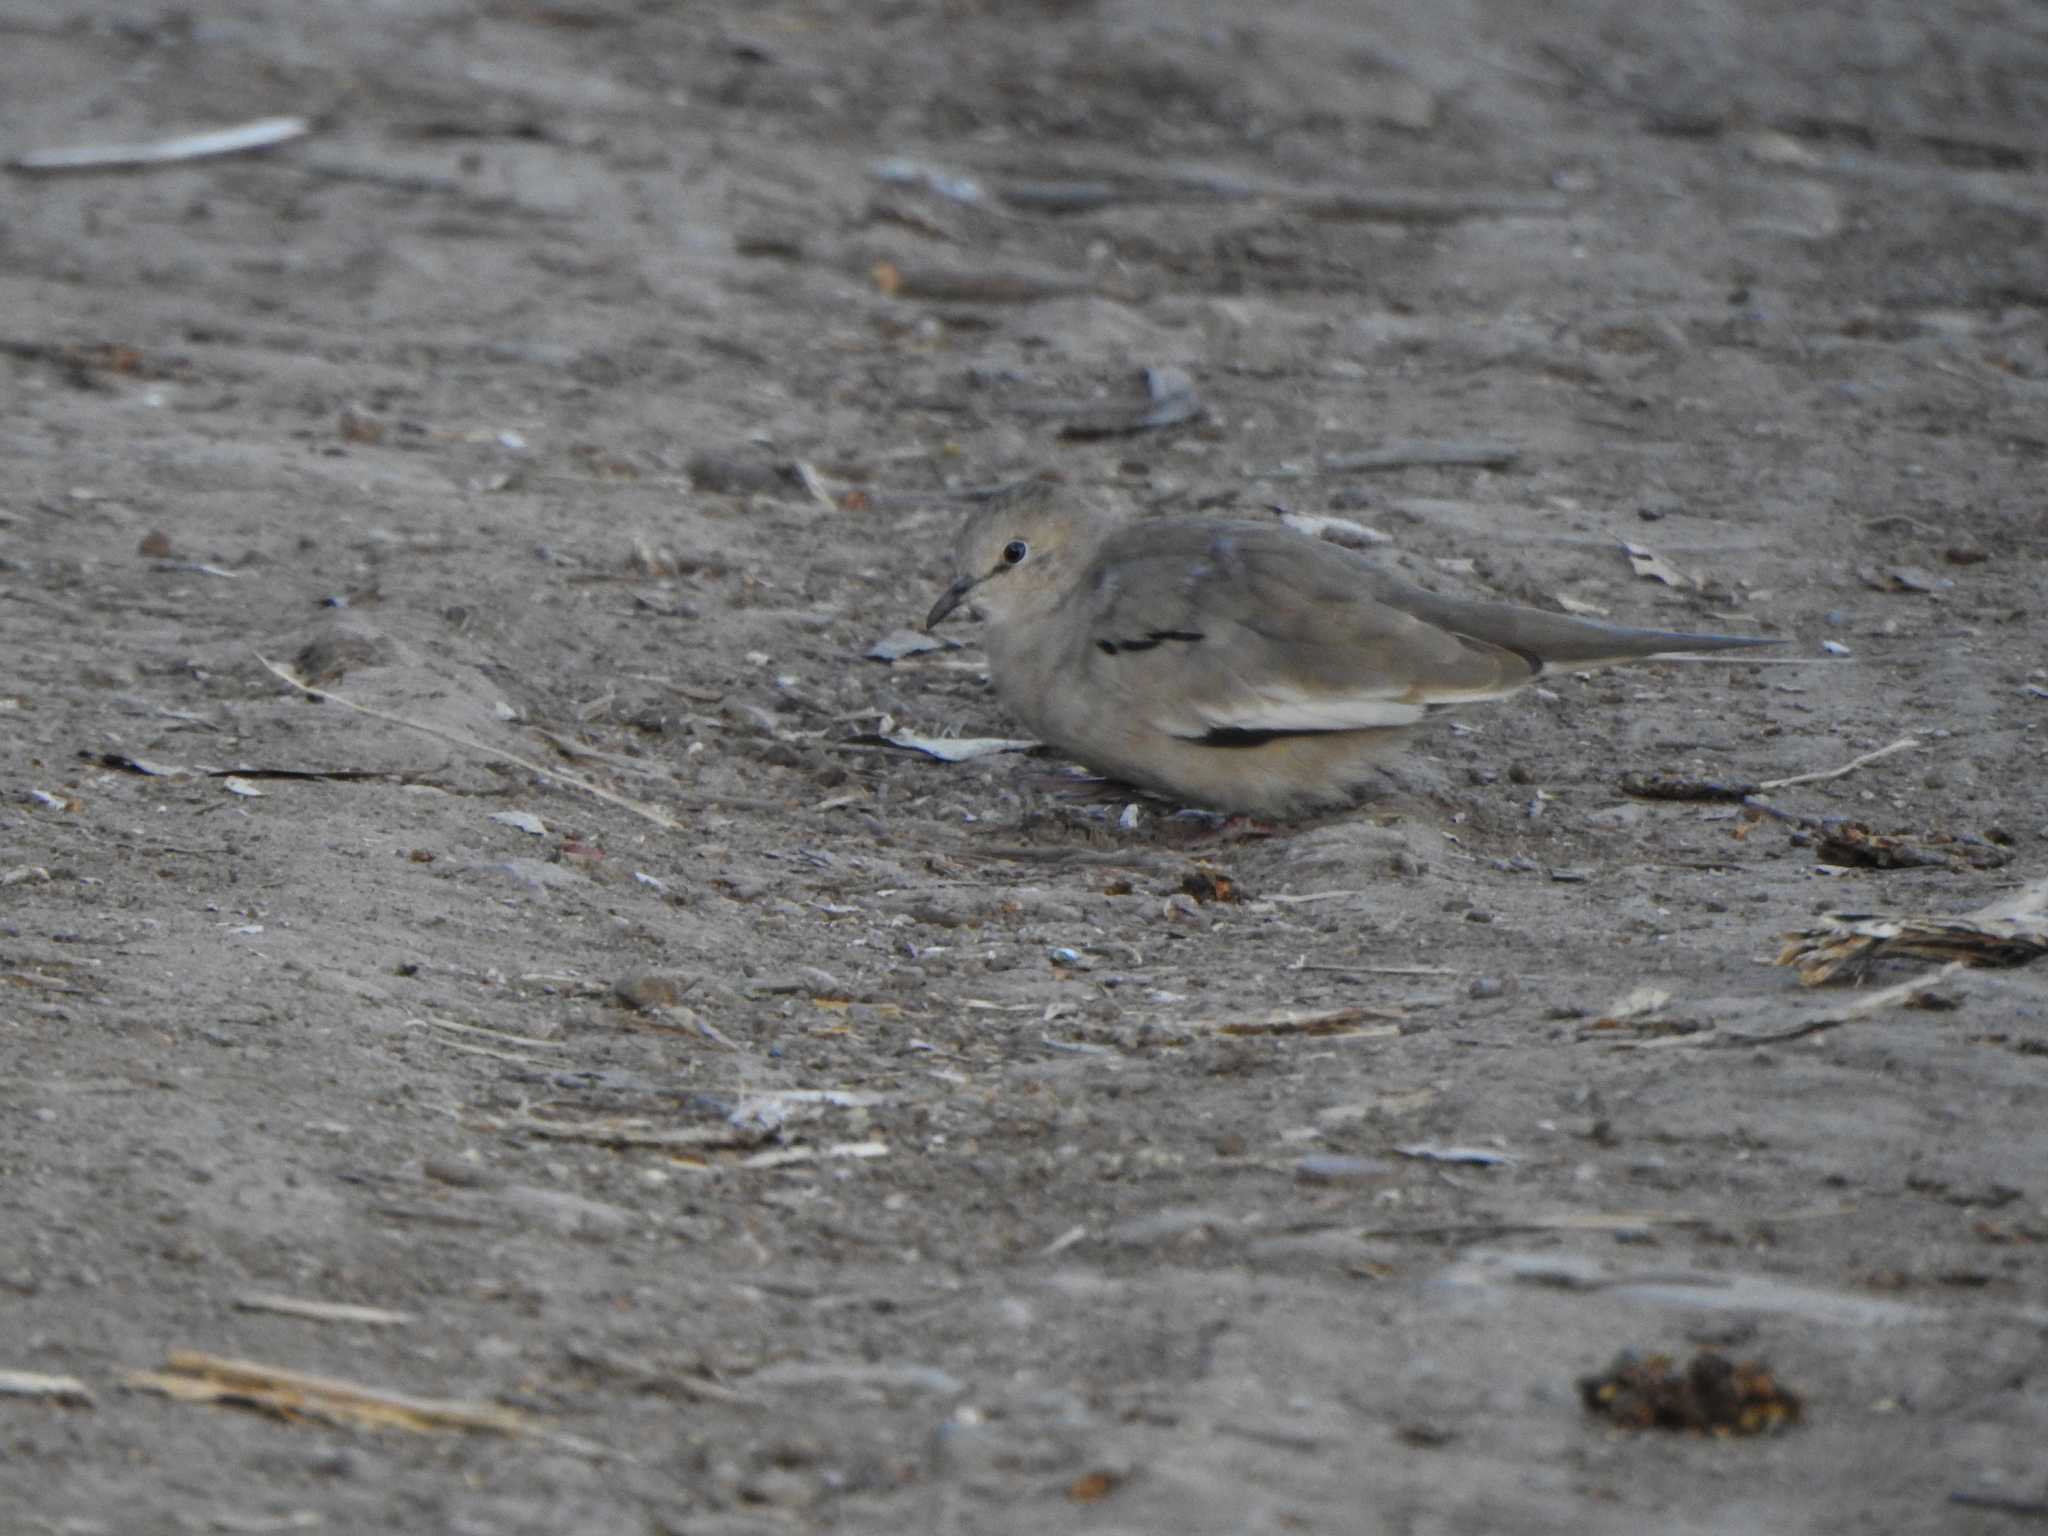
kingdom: Animalia
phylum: Chordata
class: Aves
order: Columbiformes
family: Columbidae
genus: Columbina
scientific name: Columbina picui
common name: Picui ground dove
